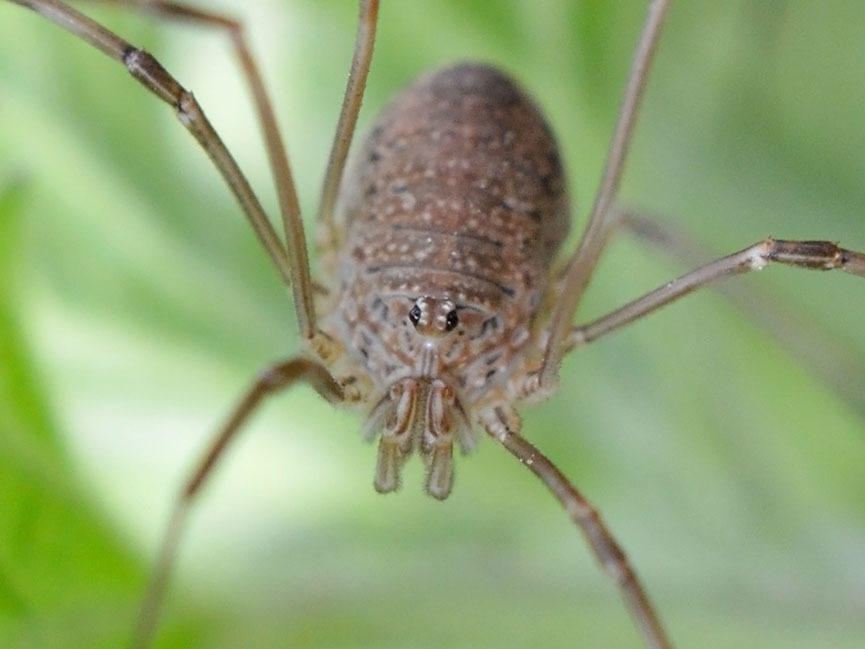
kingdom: Animalia
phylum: Arthropoda
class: Arachnida
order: Opiliones
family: Phalangiidae
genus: Phalangium
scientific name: Phalangium opilio
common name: Daddy longleg
